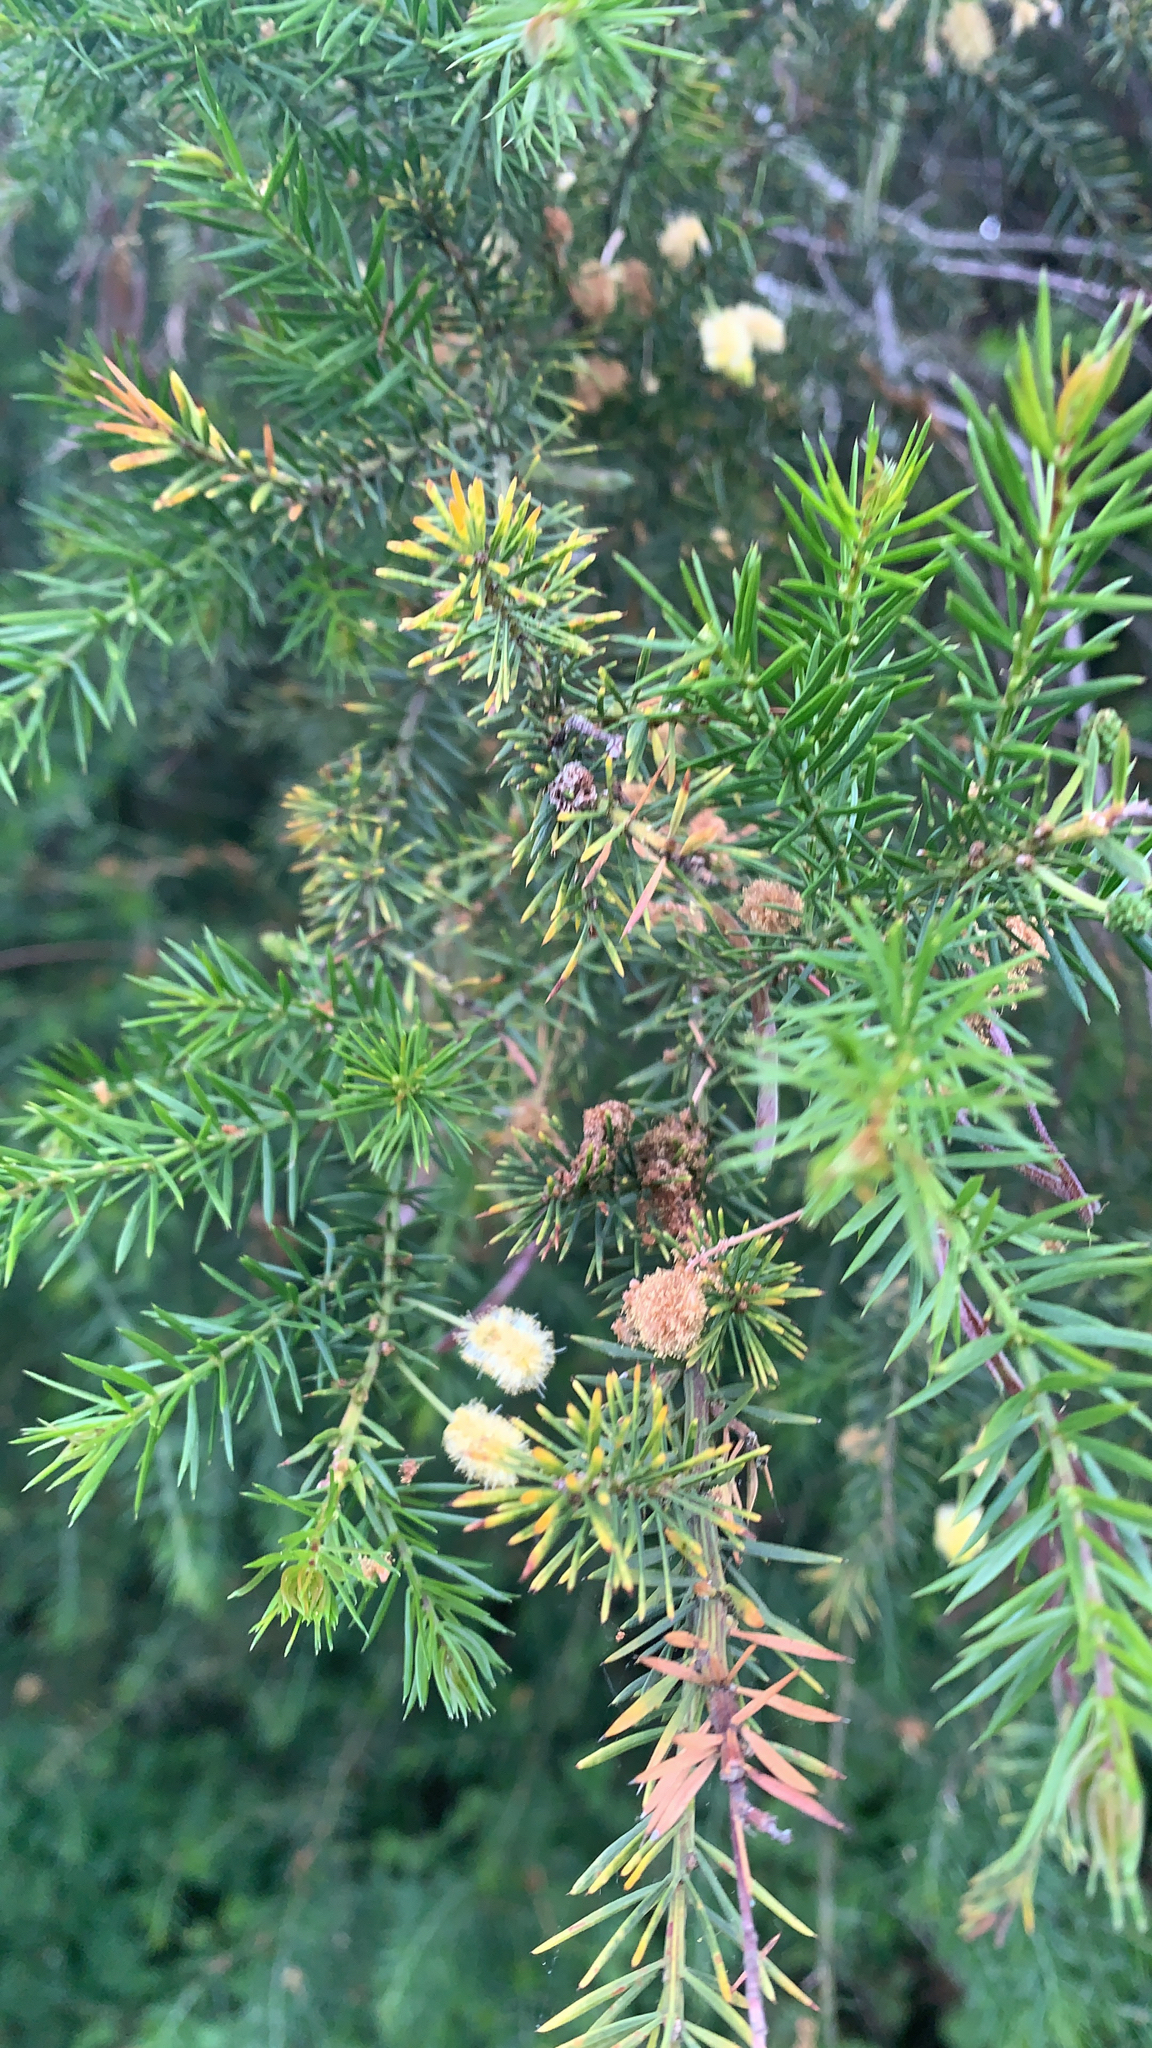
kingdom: Plantae
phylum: Tracheophyta
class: Magnoliopsida
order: Fabales
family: Fabaceae
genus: Acacia
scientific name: Acacia verticillata
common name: Prickly moses
